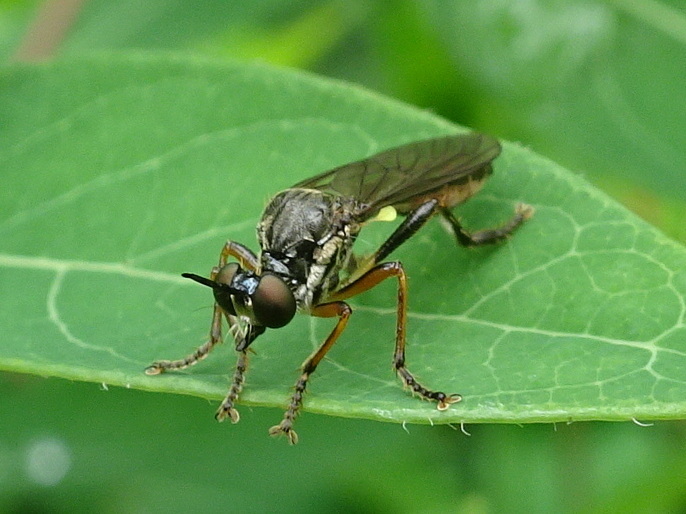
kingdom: Animalia
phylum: Arthropoda
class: Insecta
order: Diptera
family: Asilidae
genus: Dioctria
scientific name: Dioctria hyalipennis
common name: Stripe-legged robberfly
